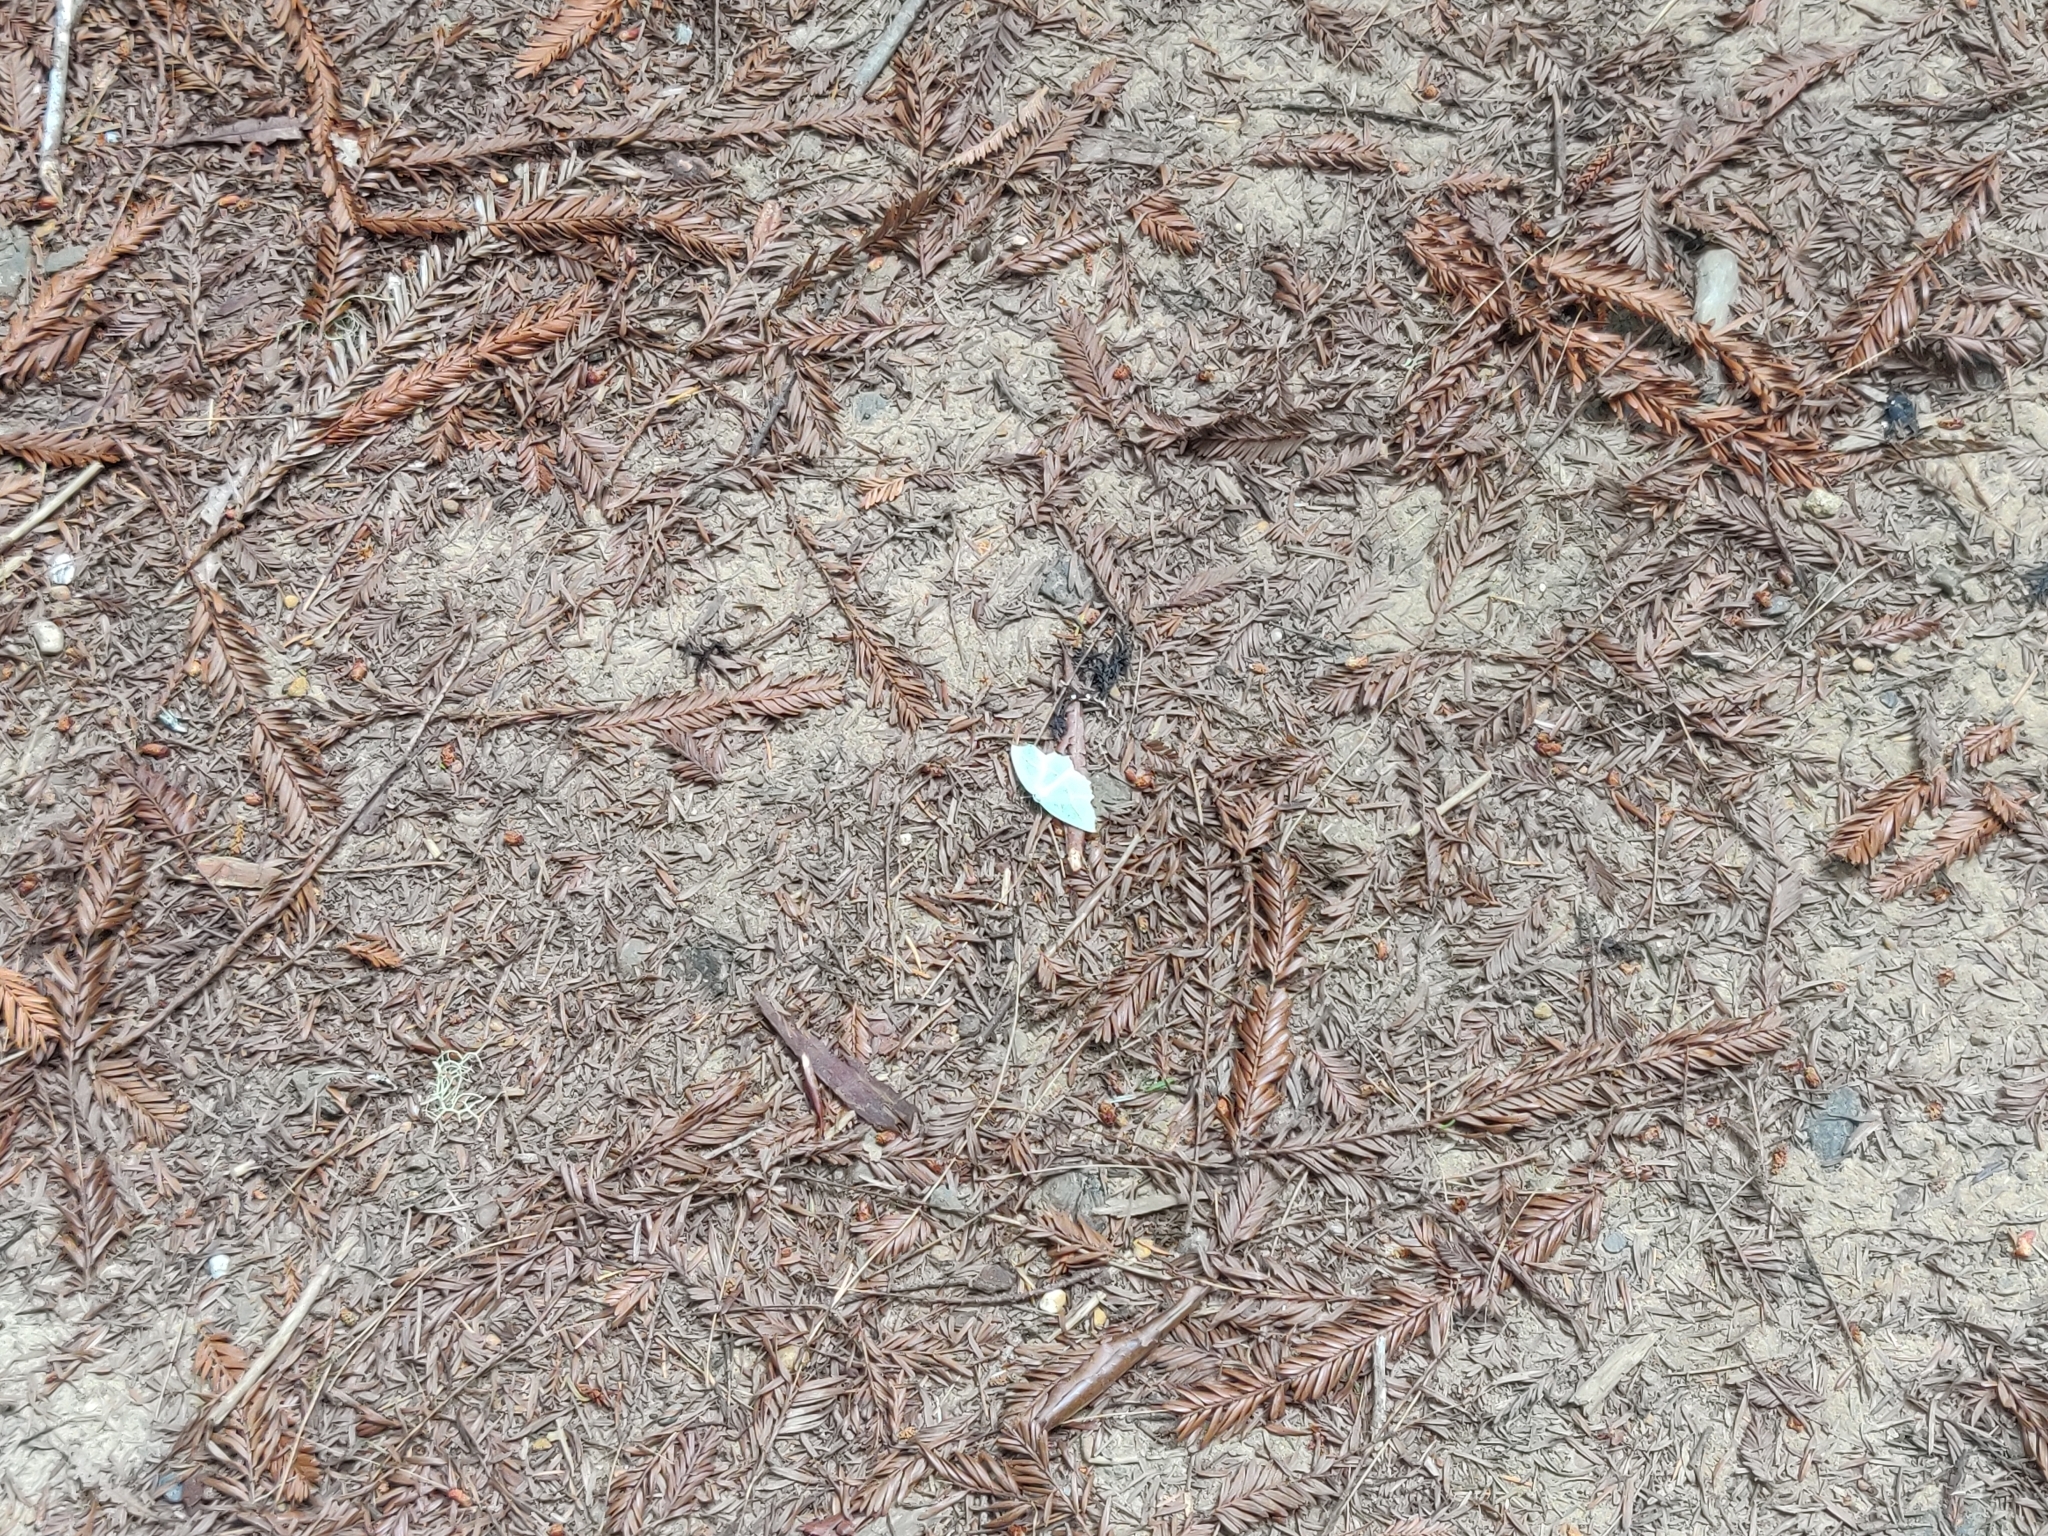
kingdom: Animalia
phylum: Arthropoda
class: Insecta
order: Lepidoptera
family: Geometridae
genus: Campaea
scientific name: Campaea perlata
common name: Fringed looper
